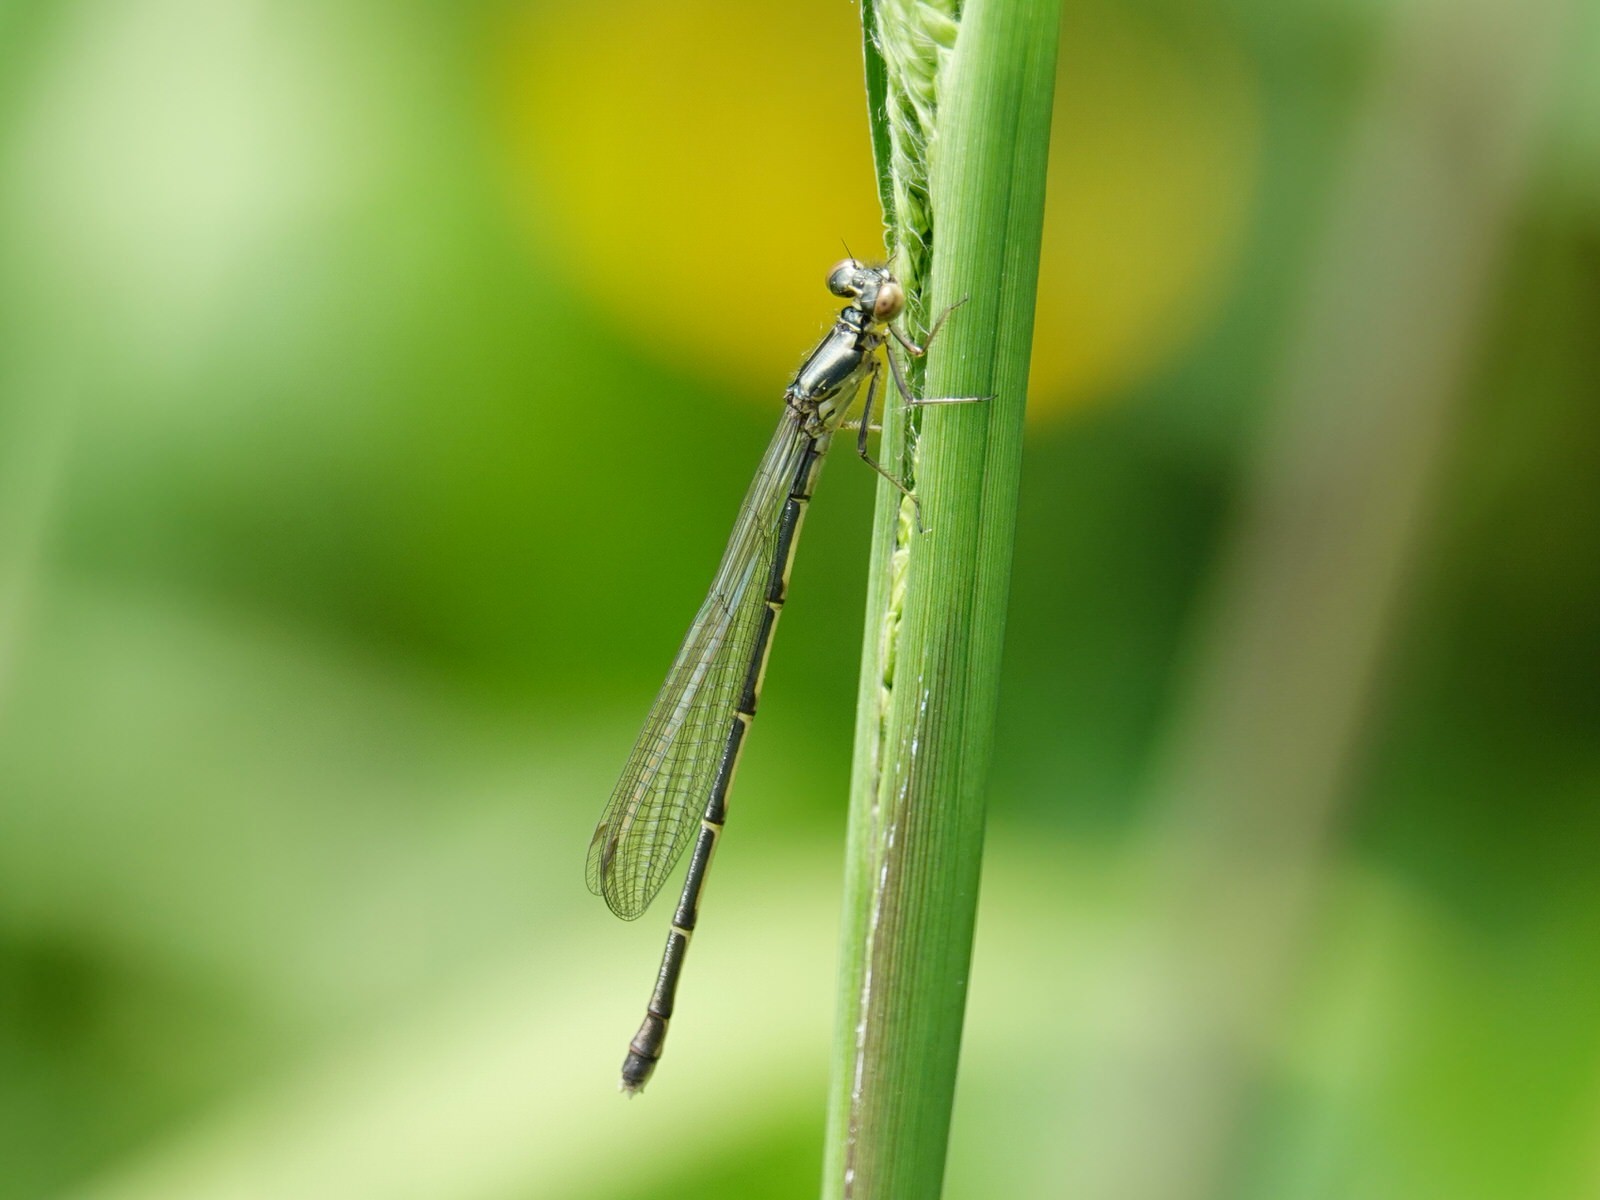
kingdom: Animalia
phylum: Arthropoda
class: Insecta
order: Odonata
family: Coenagrionidae
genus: Xanthocnemis
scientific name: Xanthocnemis zealandica
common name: Common redcoat damselfly
